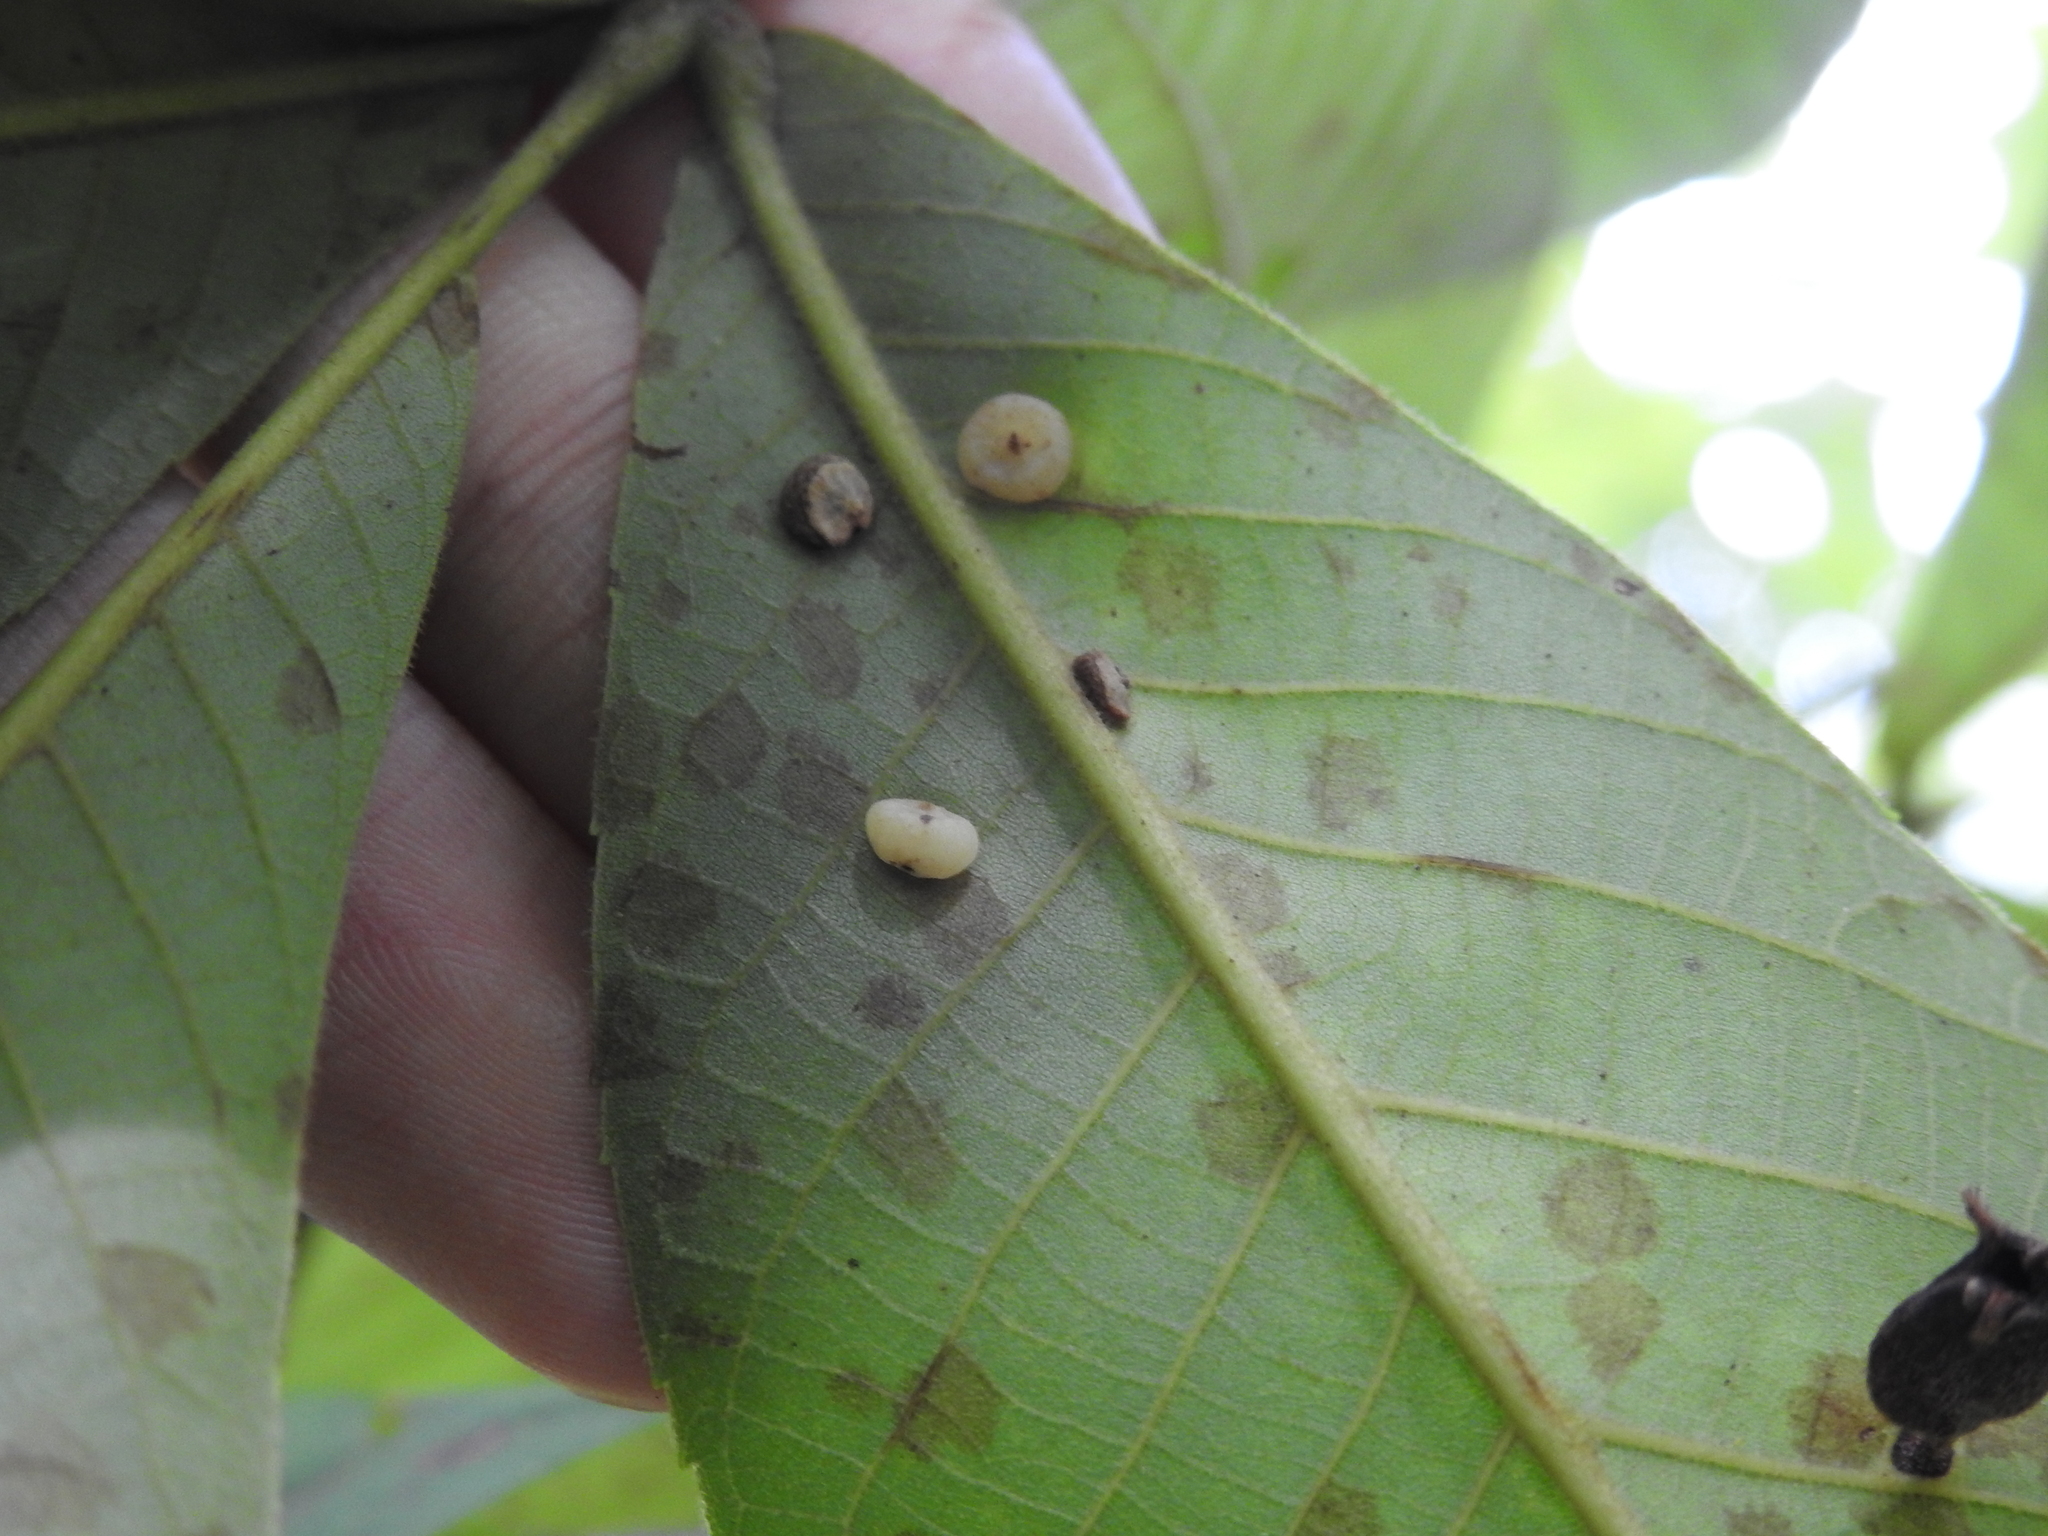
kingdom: Animalia
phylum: Arthropoda
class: Insecta
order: Diptera
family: Cecidomyiidae
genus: Caryomyia
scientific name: Caryomyia biretta
